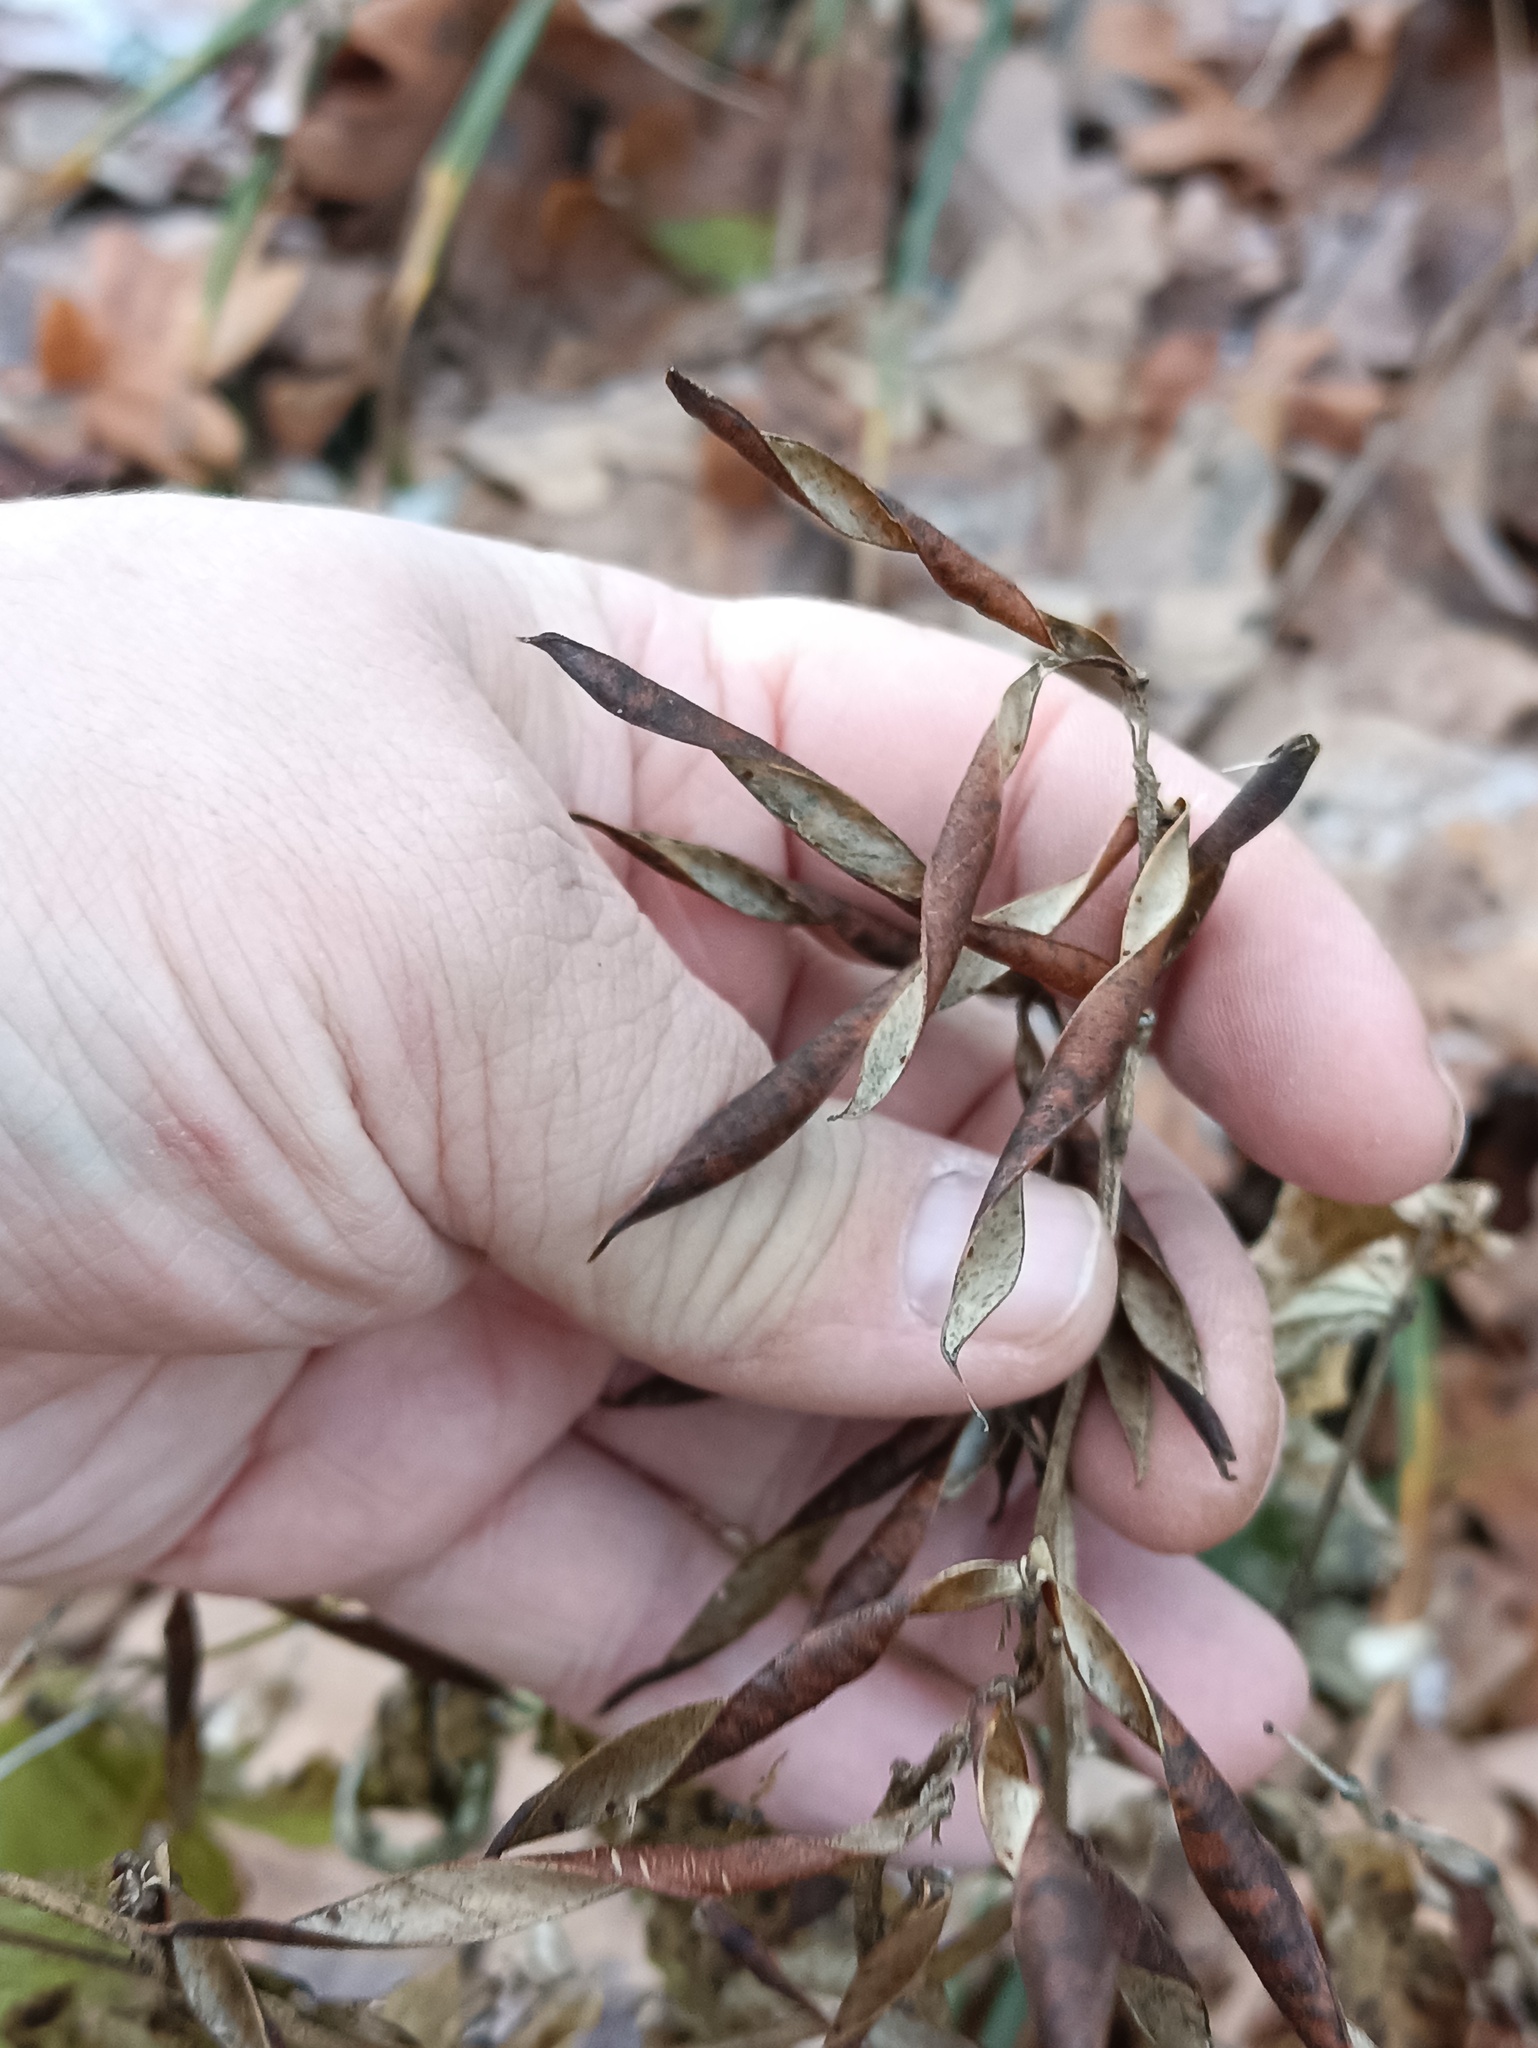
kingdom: Plantae
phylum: Tracheophyta
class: Magnoliopsida
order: Fabales
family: Fabaceae
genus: Lathyrus
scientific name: Lathyrus vernus
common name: Spring pea
